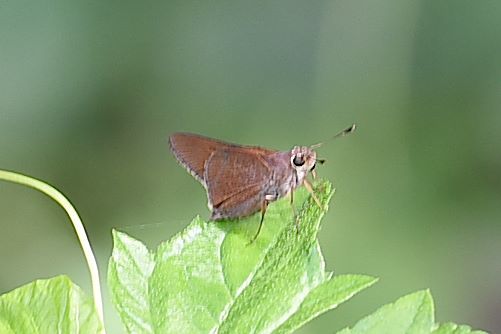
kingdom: Animalia
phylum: Arthropoda
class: Insecta
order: Lepidoptera
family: Hesperiidae
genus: Asbolis
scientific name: Asbolis capucinus
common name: Monk skipper
